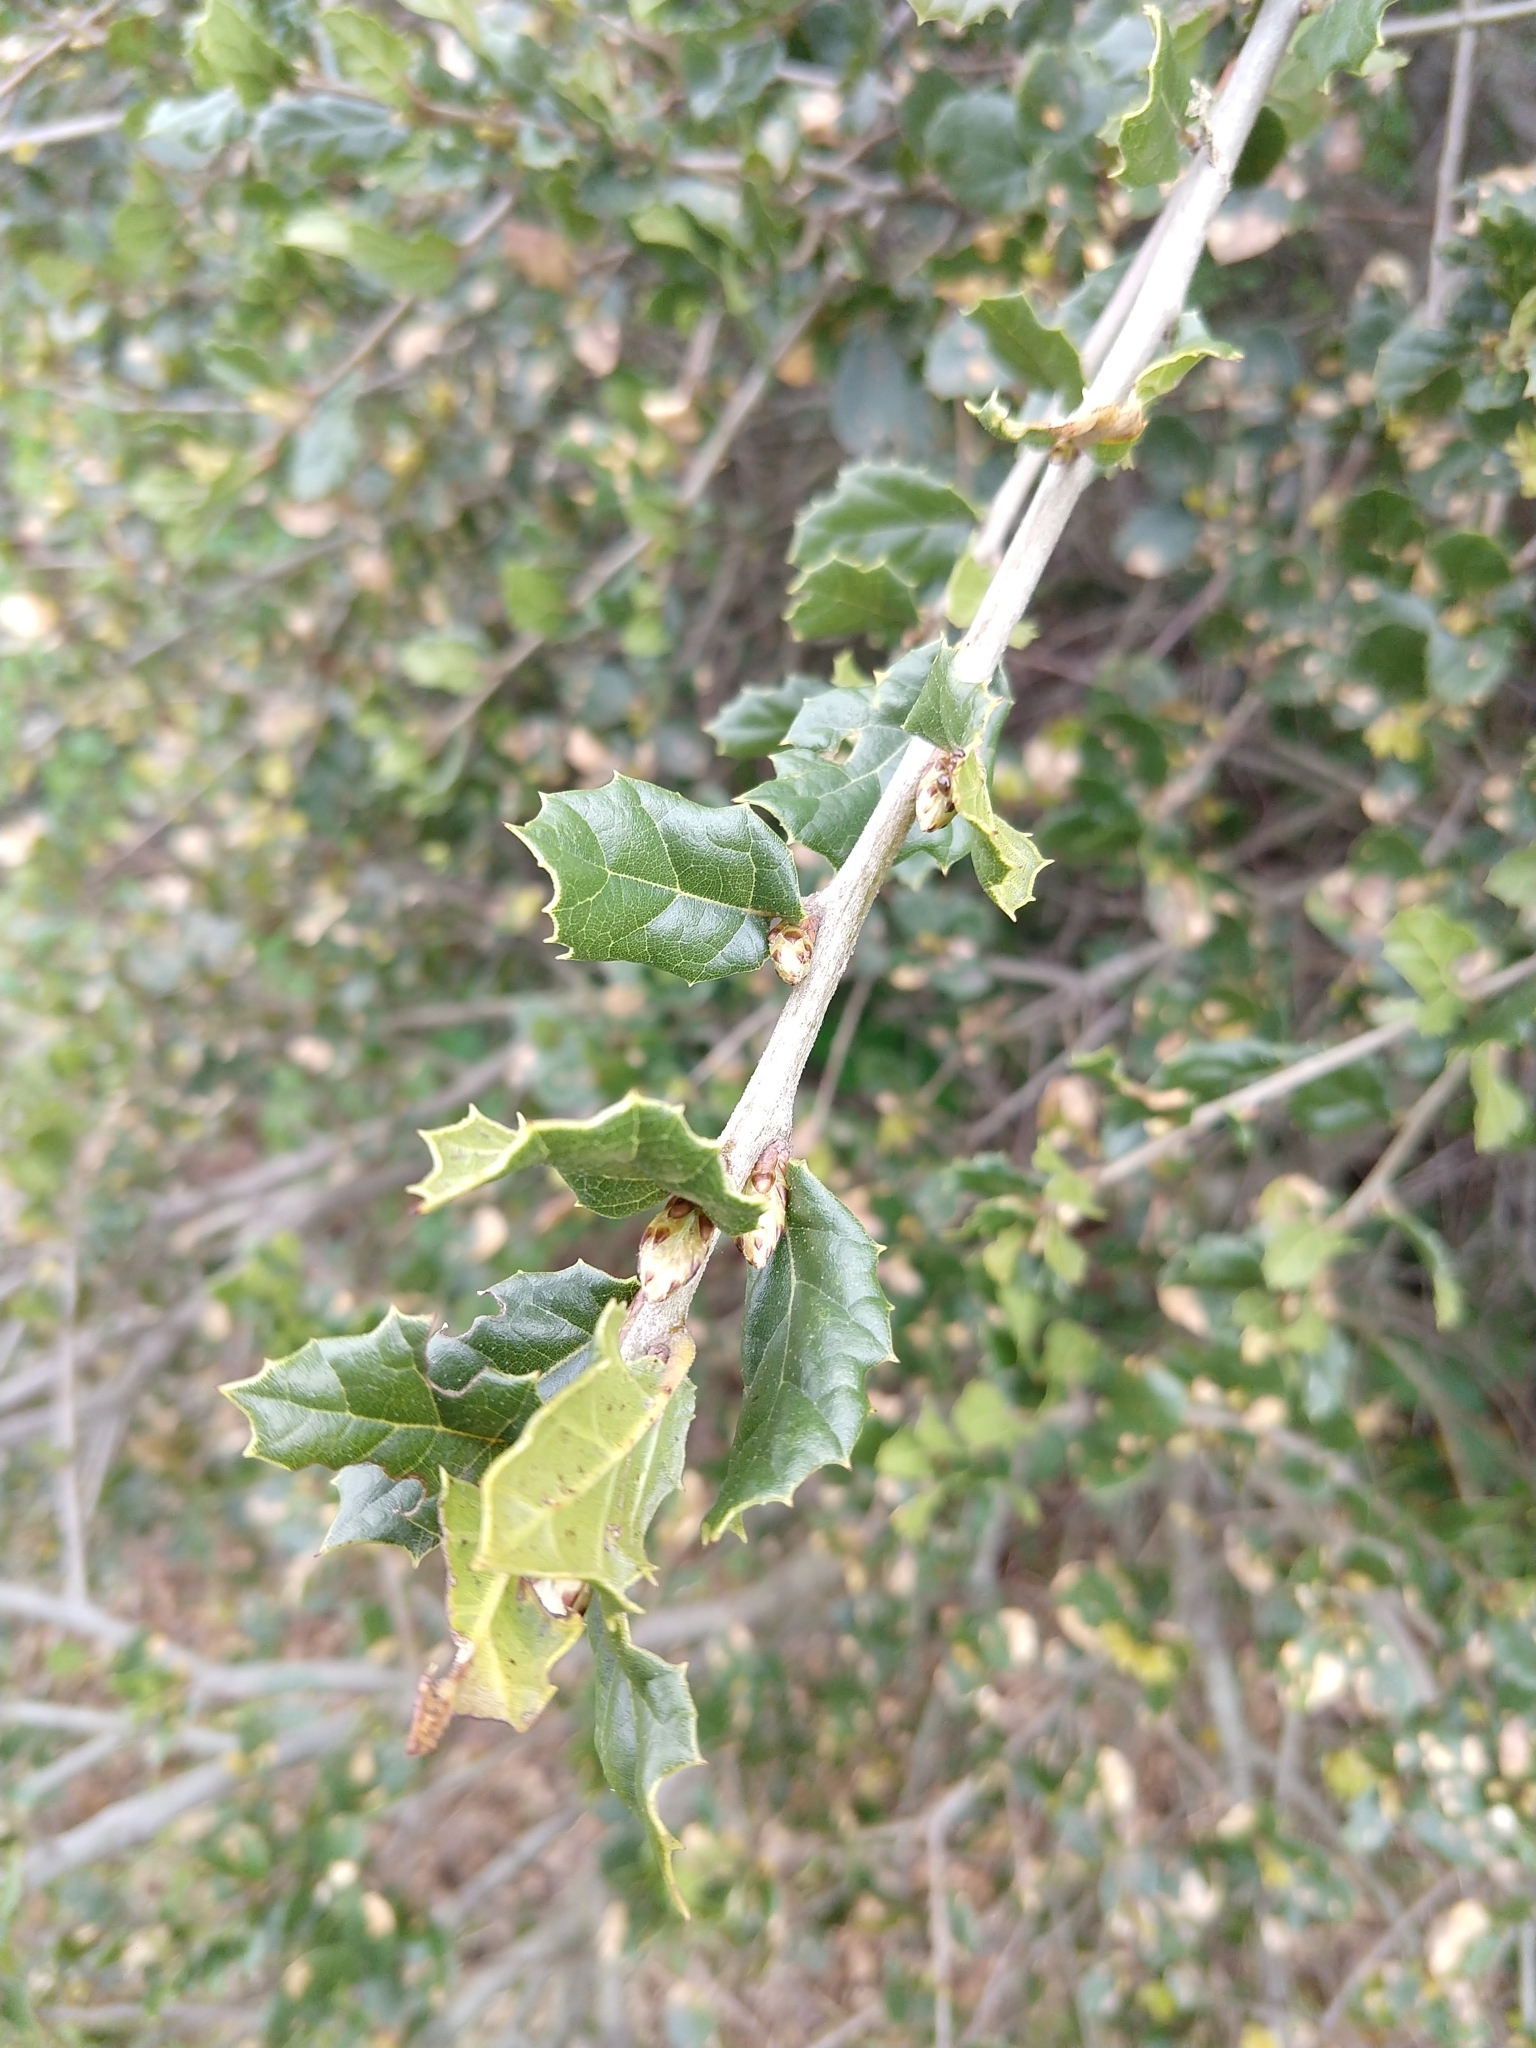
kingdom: Plantae
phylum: Tracheophyta
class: Magnoliopsida
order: Fagales
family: Fagaceae
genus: Quercus
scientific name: Quercus agrifolia
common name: California live oak
